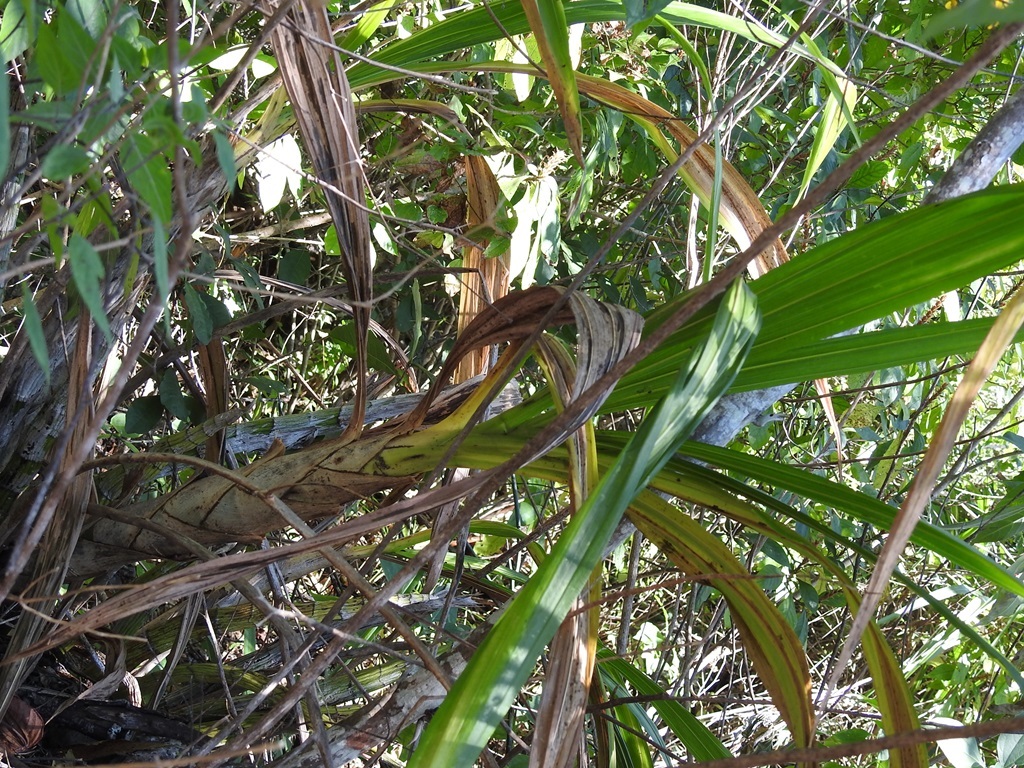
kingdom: Plantae
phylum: Tracheophyta
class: Liliopsida
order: Asparagales
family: Orchidaceae
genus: Cyrtopodium
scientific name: Cyrtopodium macrobulbon
